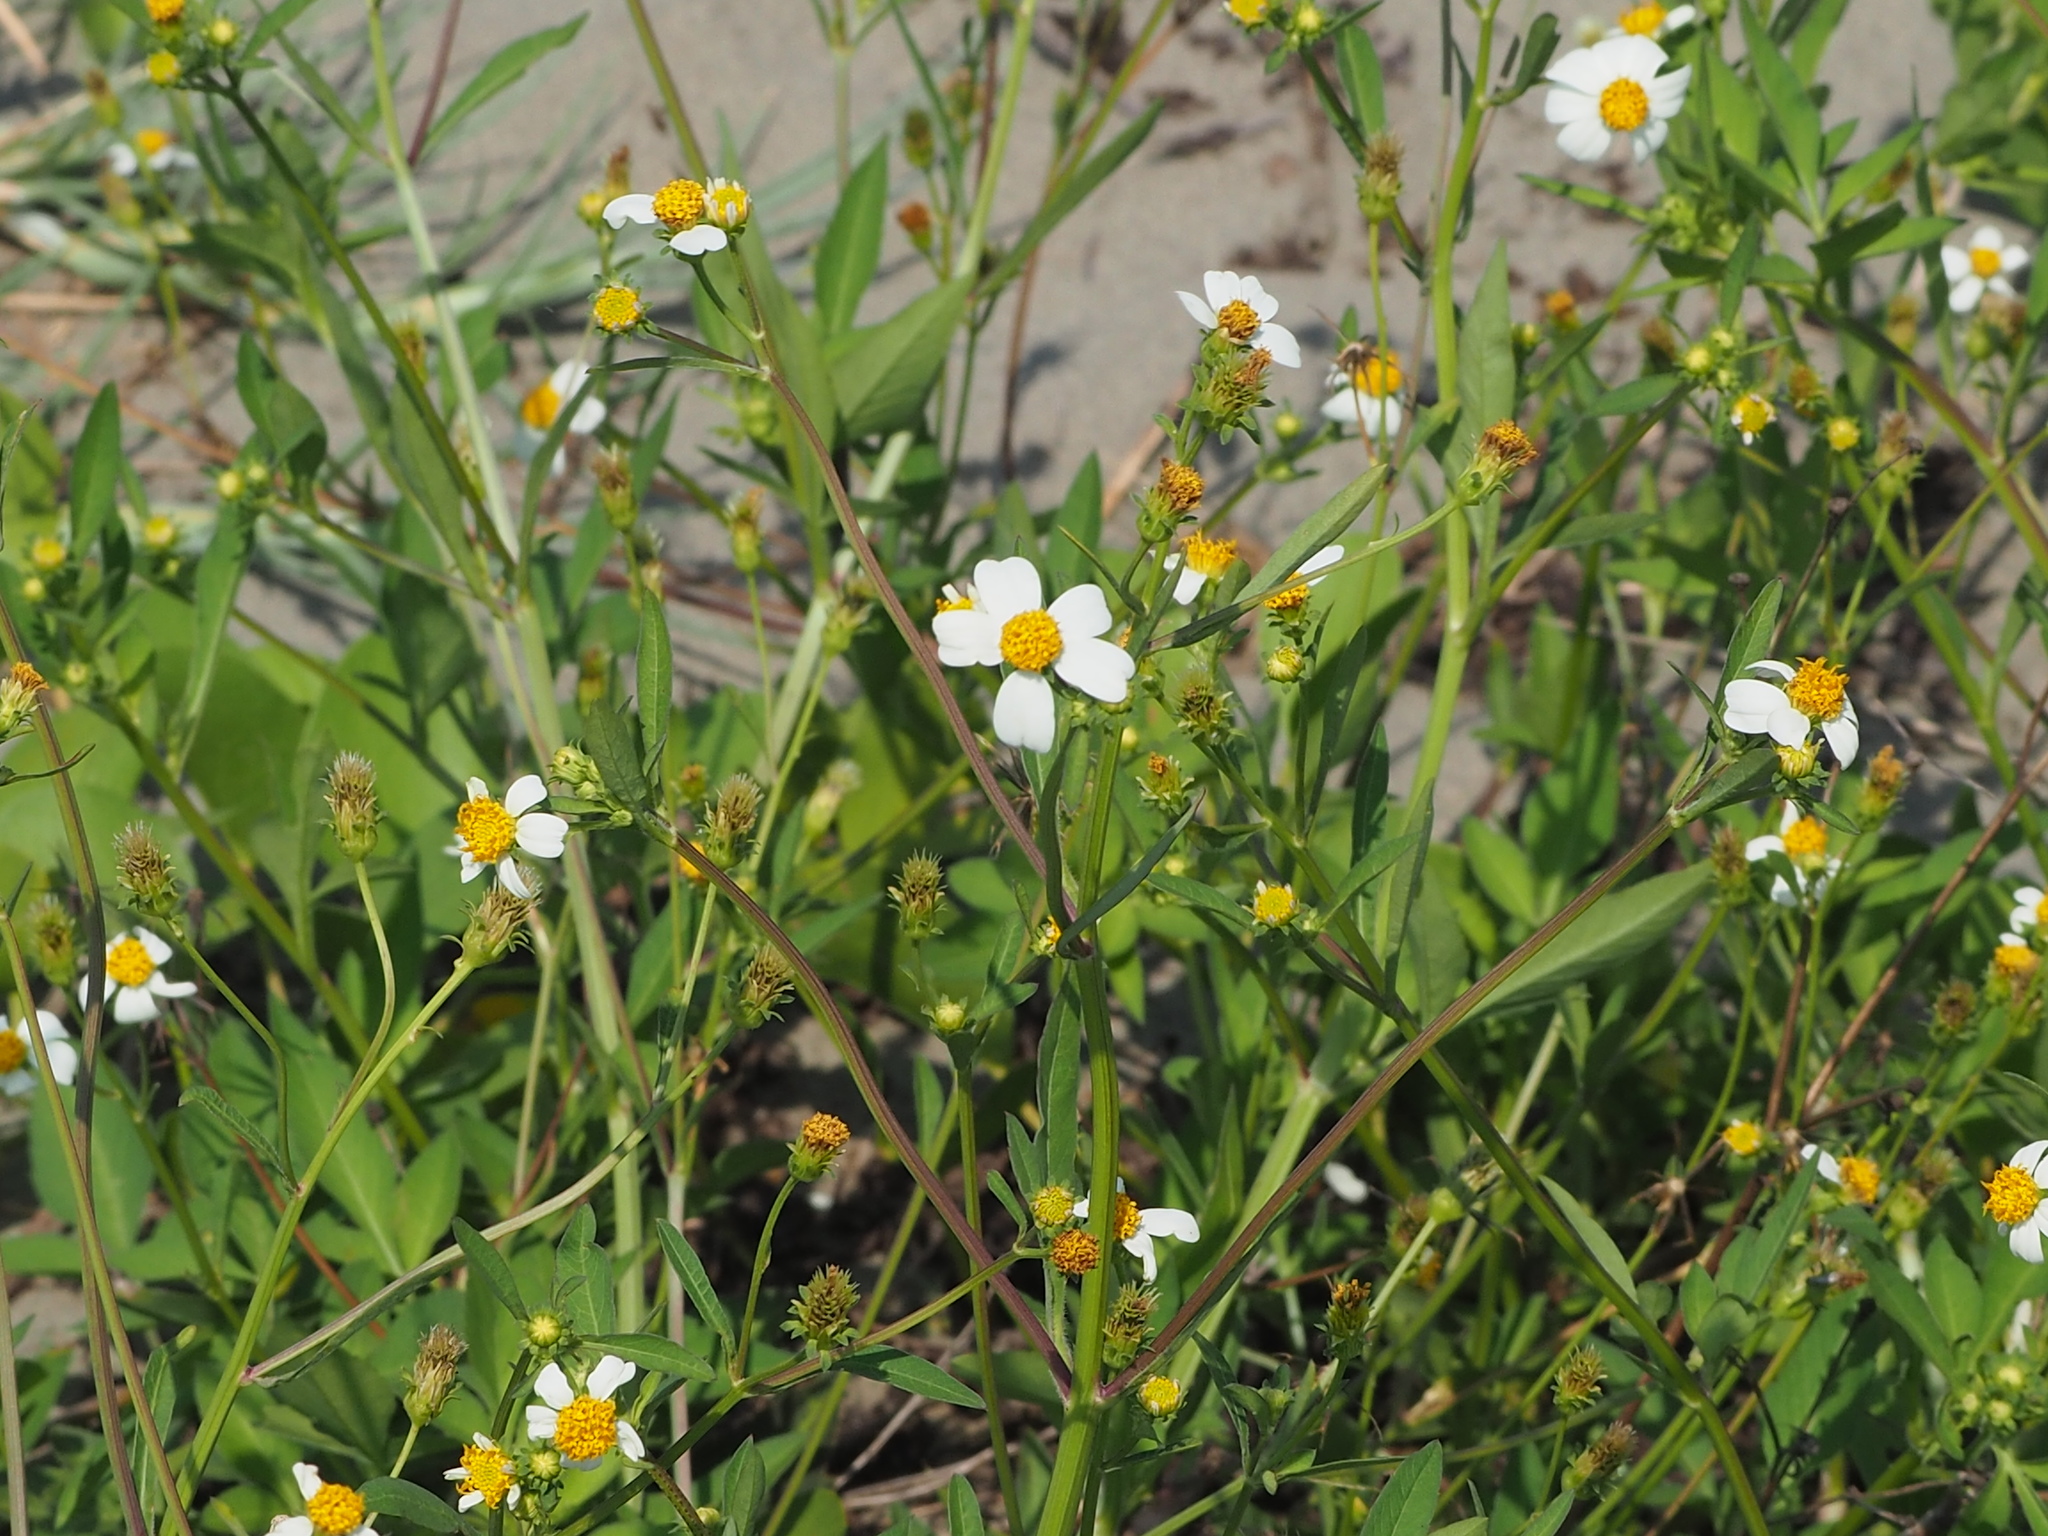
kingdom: Plantae
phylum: Tracheophyta
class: Magnoliopsida
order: Asterales
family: Asteraceae
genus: Bidens
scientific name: Bidens alba
